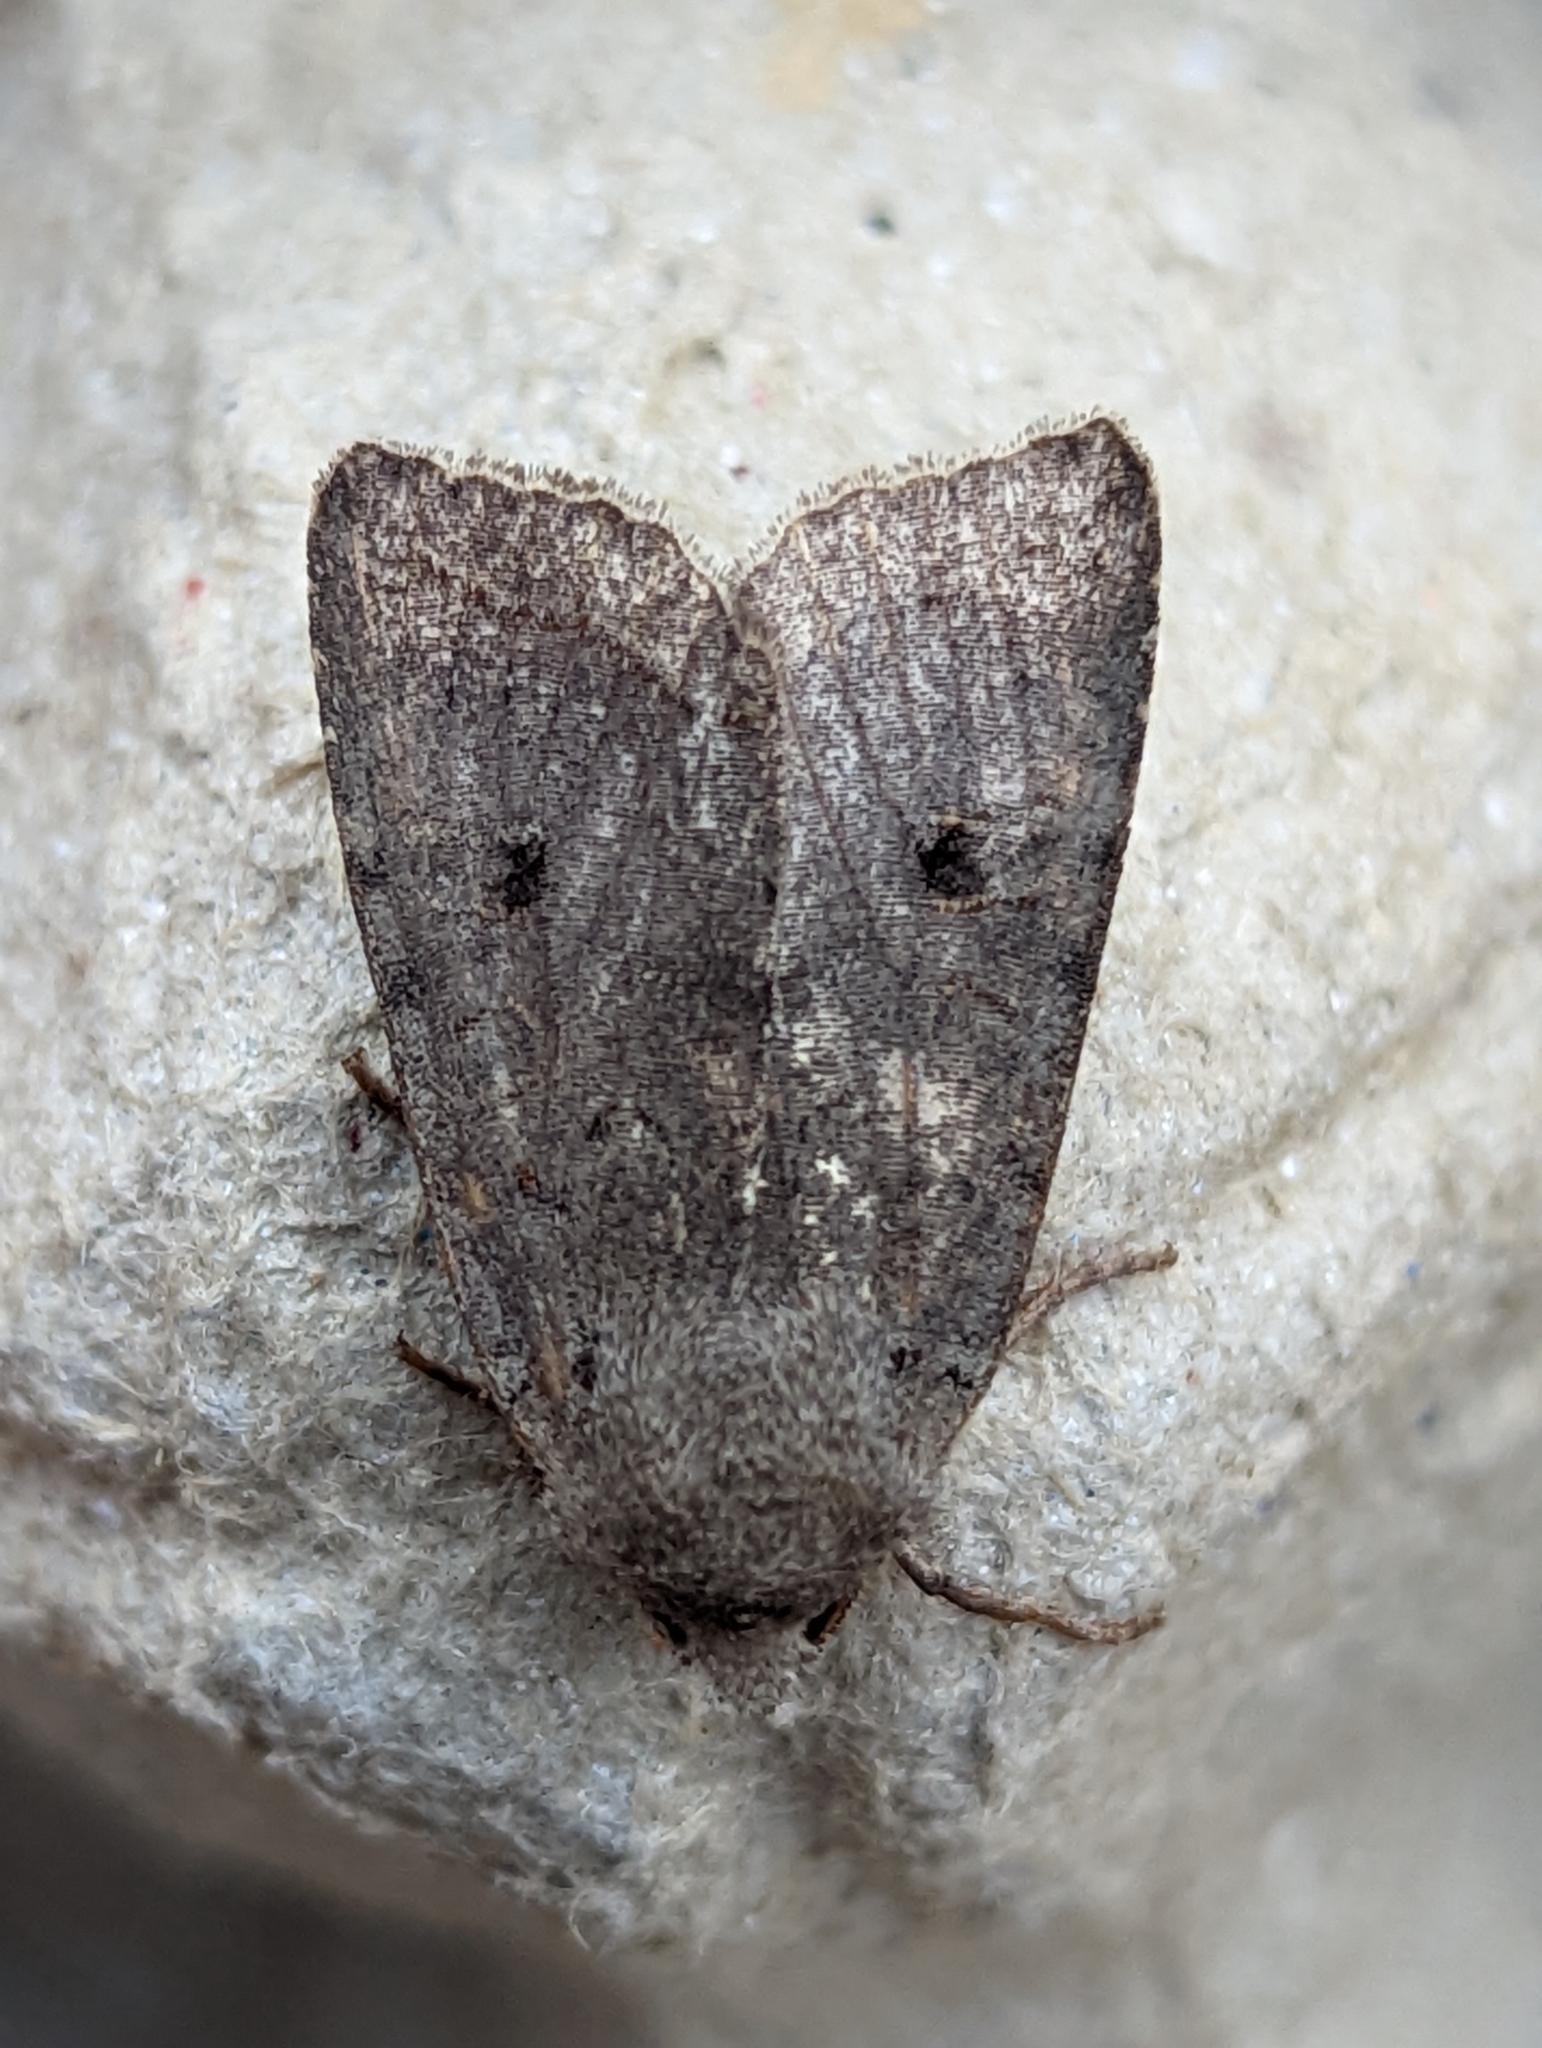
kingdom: Animalia
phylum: Arthropoda
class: Insecta
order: Lepidoptera
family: Noctuidae
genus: Agrochola
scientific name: Agrochola lota
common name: Red-line quaker
